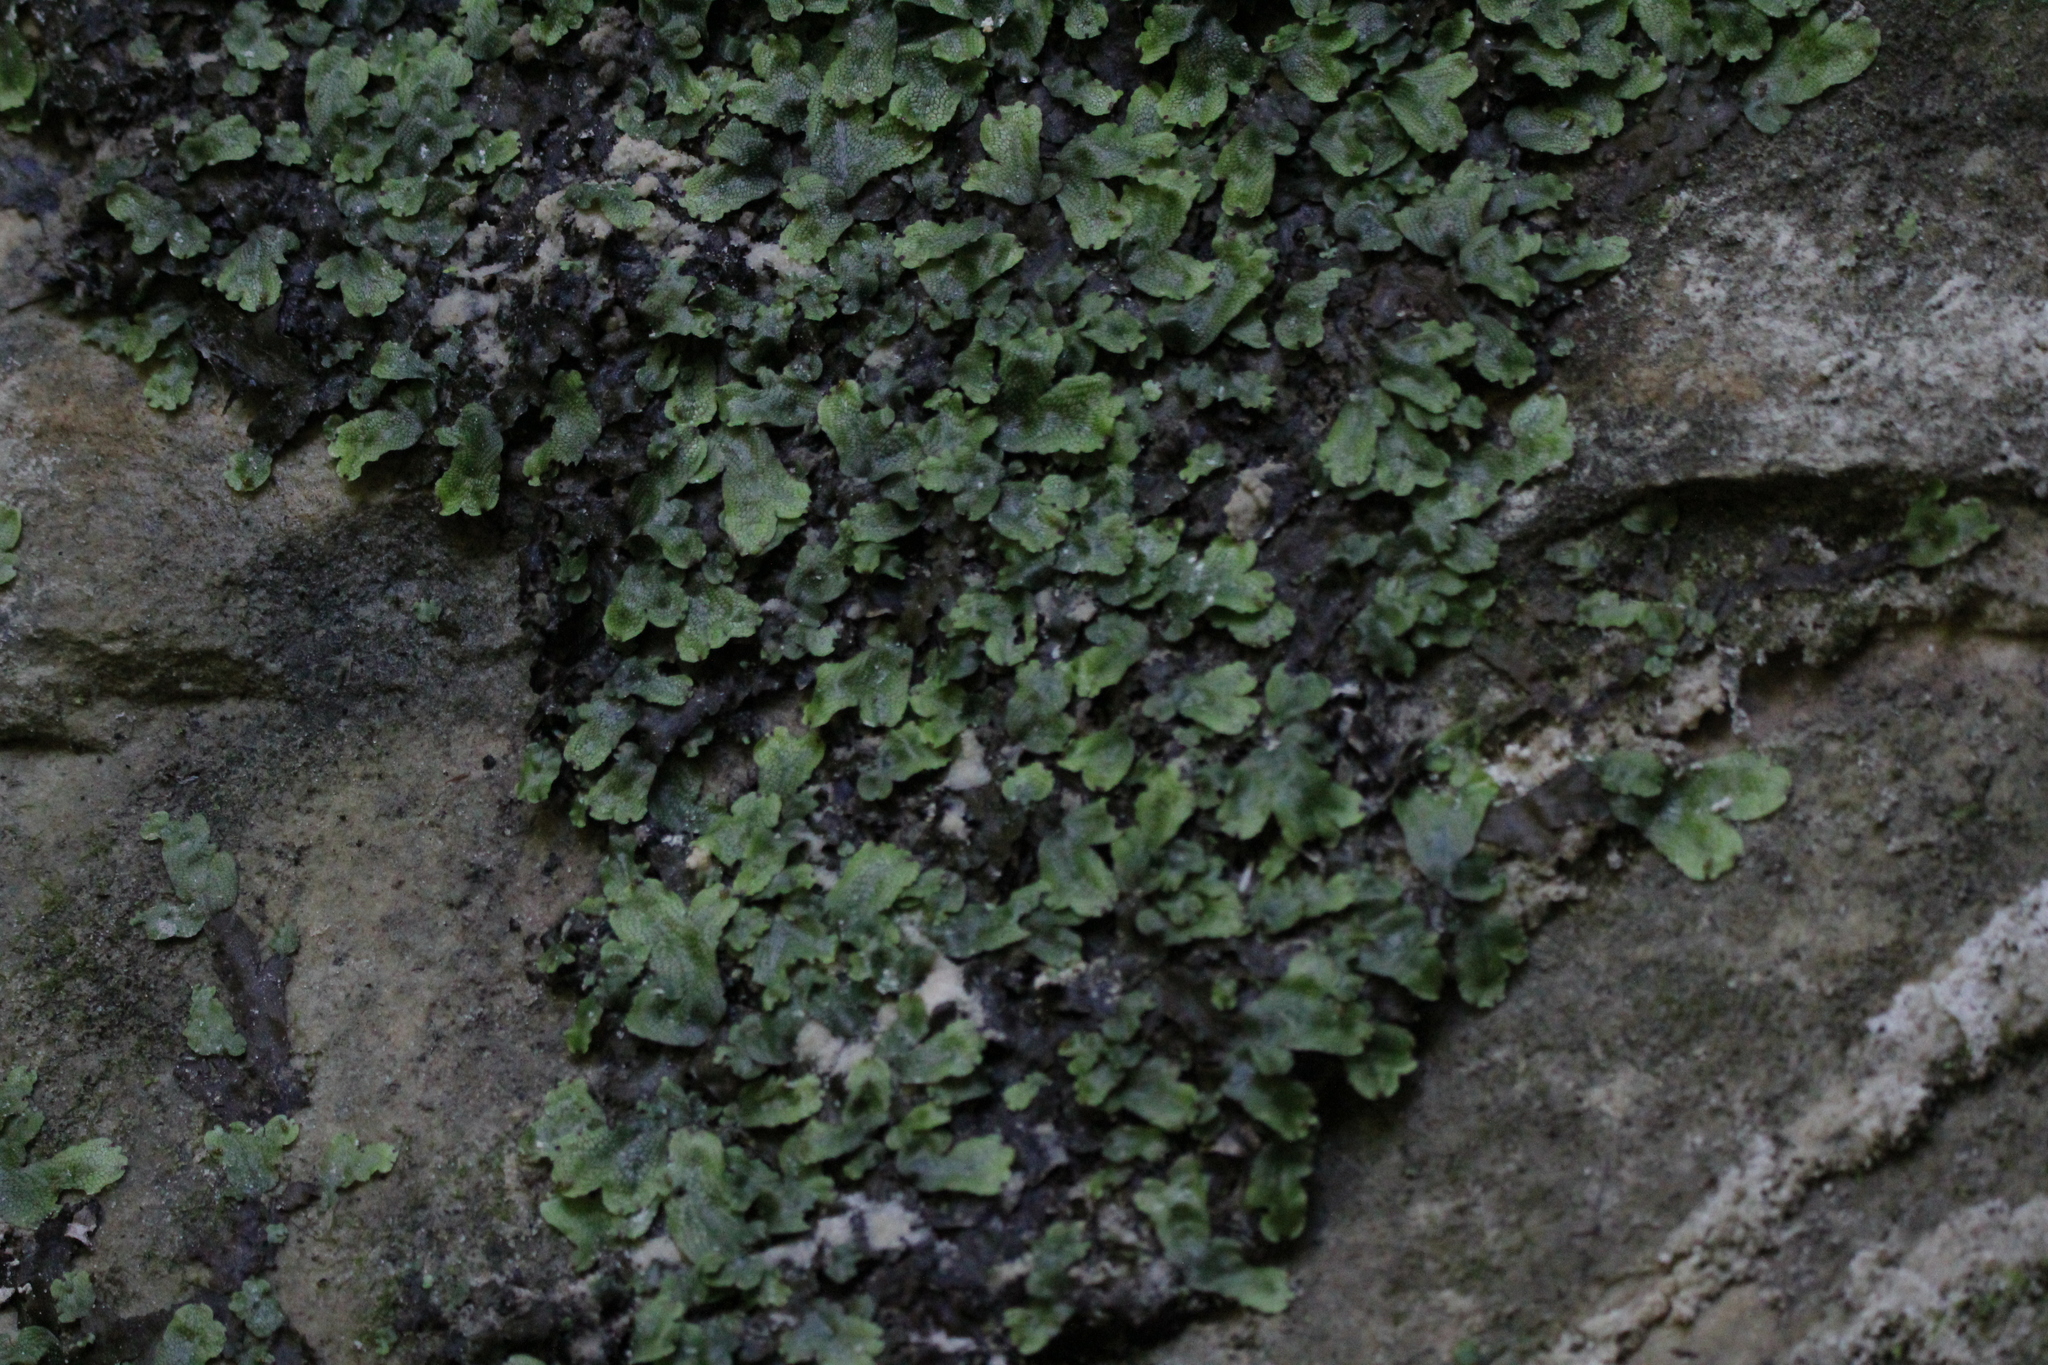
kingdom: Plantae
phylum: Marchantiophyta
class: Marchantiopsida
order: Marchantiales
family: Conocephalaceae
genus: Conocephalum
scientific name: Conocephalum salebrosum
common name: Cat-tongue liverwort
